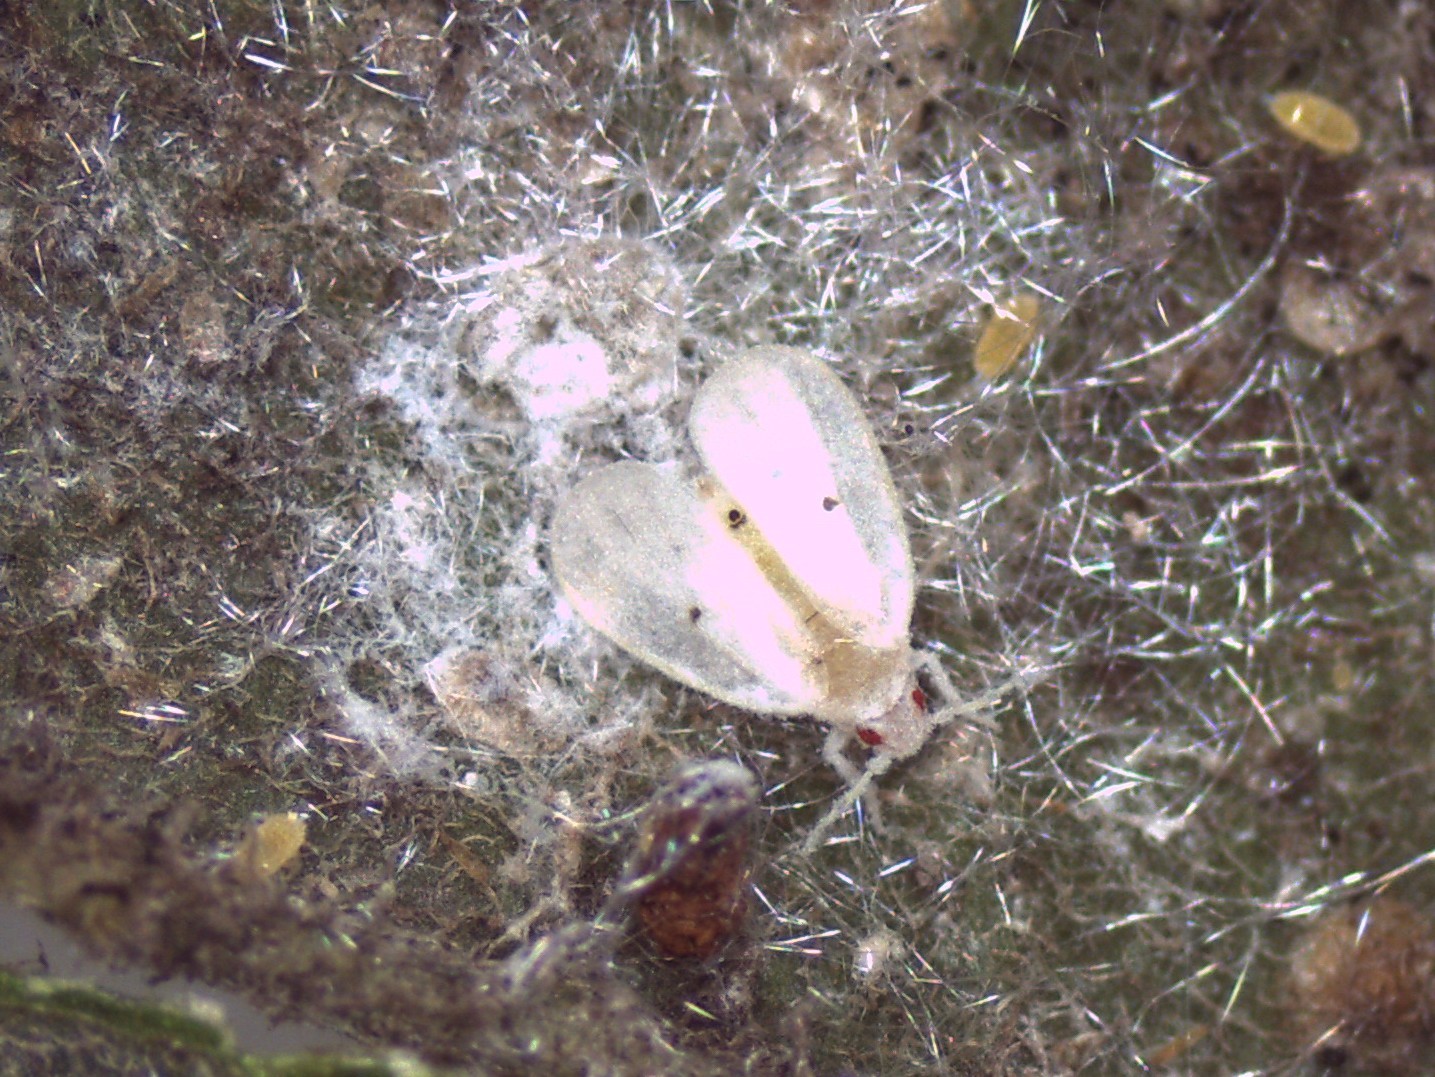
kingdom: Animalia
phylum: Arthropoda
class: Insecta
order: Hemiptera
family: Aleyrodidae
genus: Metaleurodicus
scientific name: Metaleurodicus cardini
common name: Whitefly
